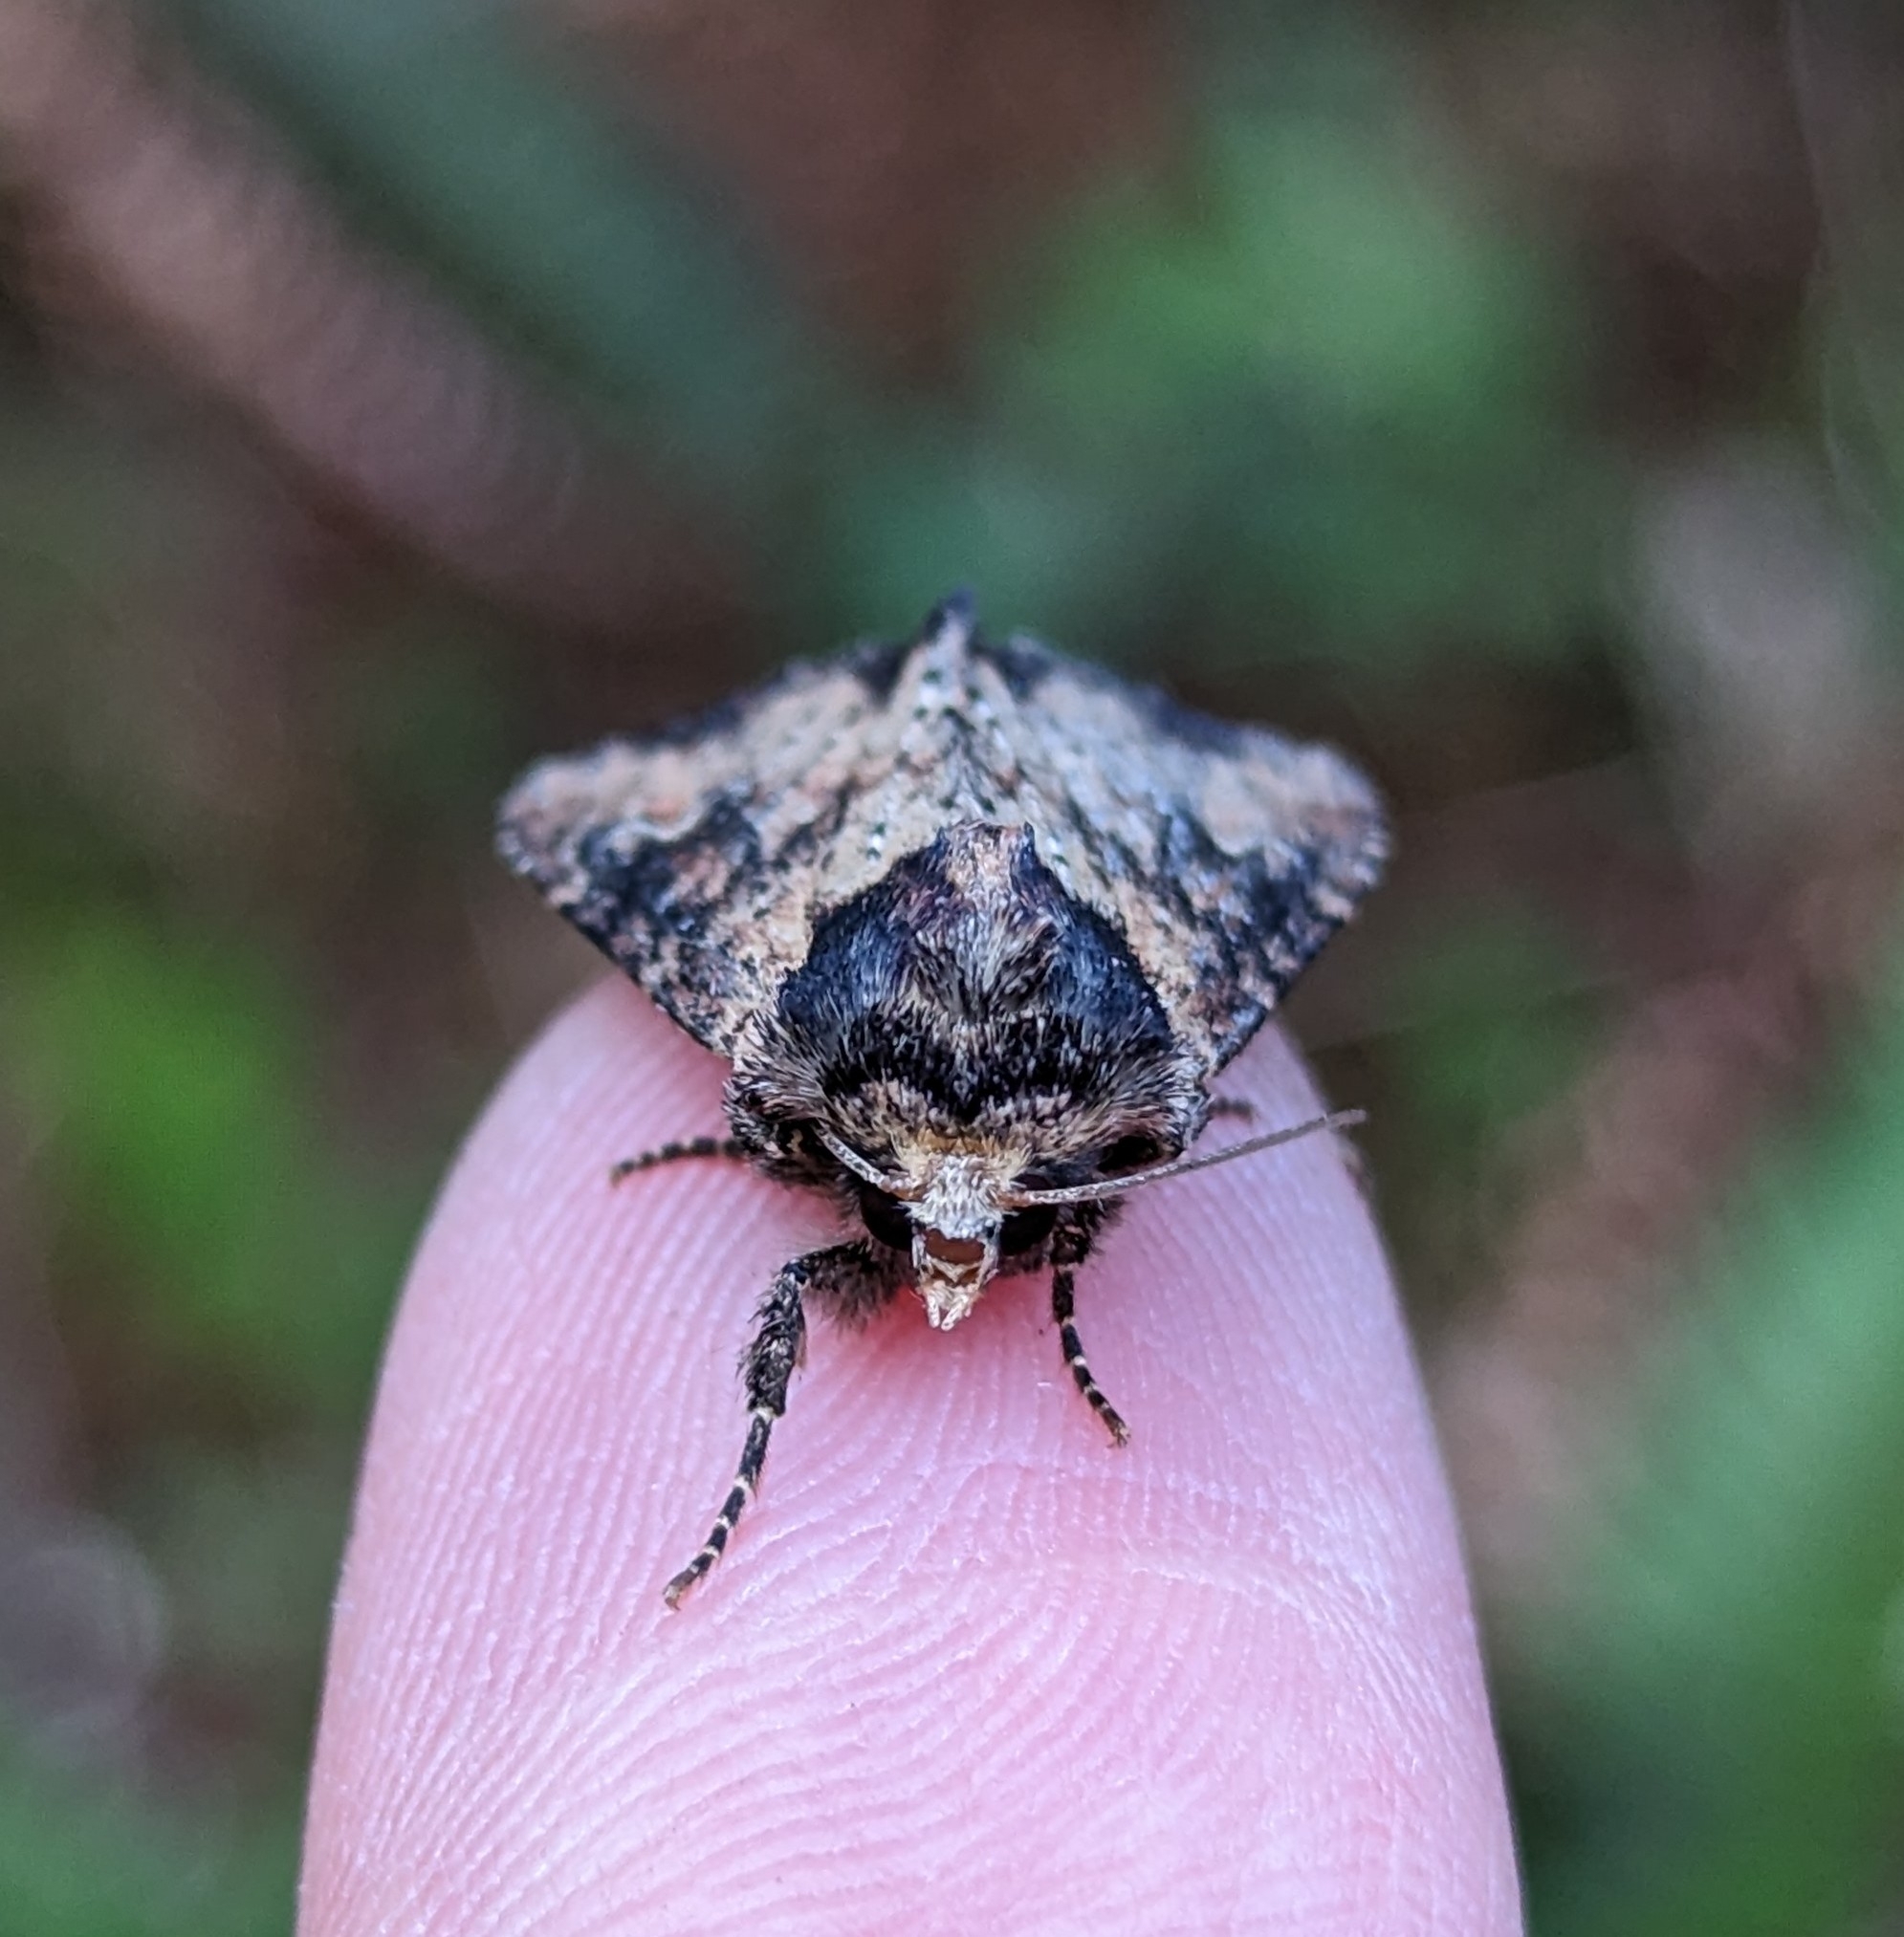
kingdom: Animalia
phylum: Arthropoda
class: Insecta
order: Lepidoptera
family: Noctuidae
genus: Apamea
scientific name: Apamea vultuosa
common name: Airy apamea moth
